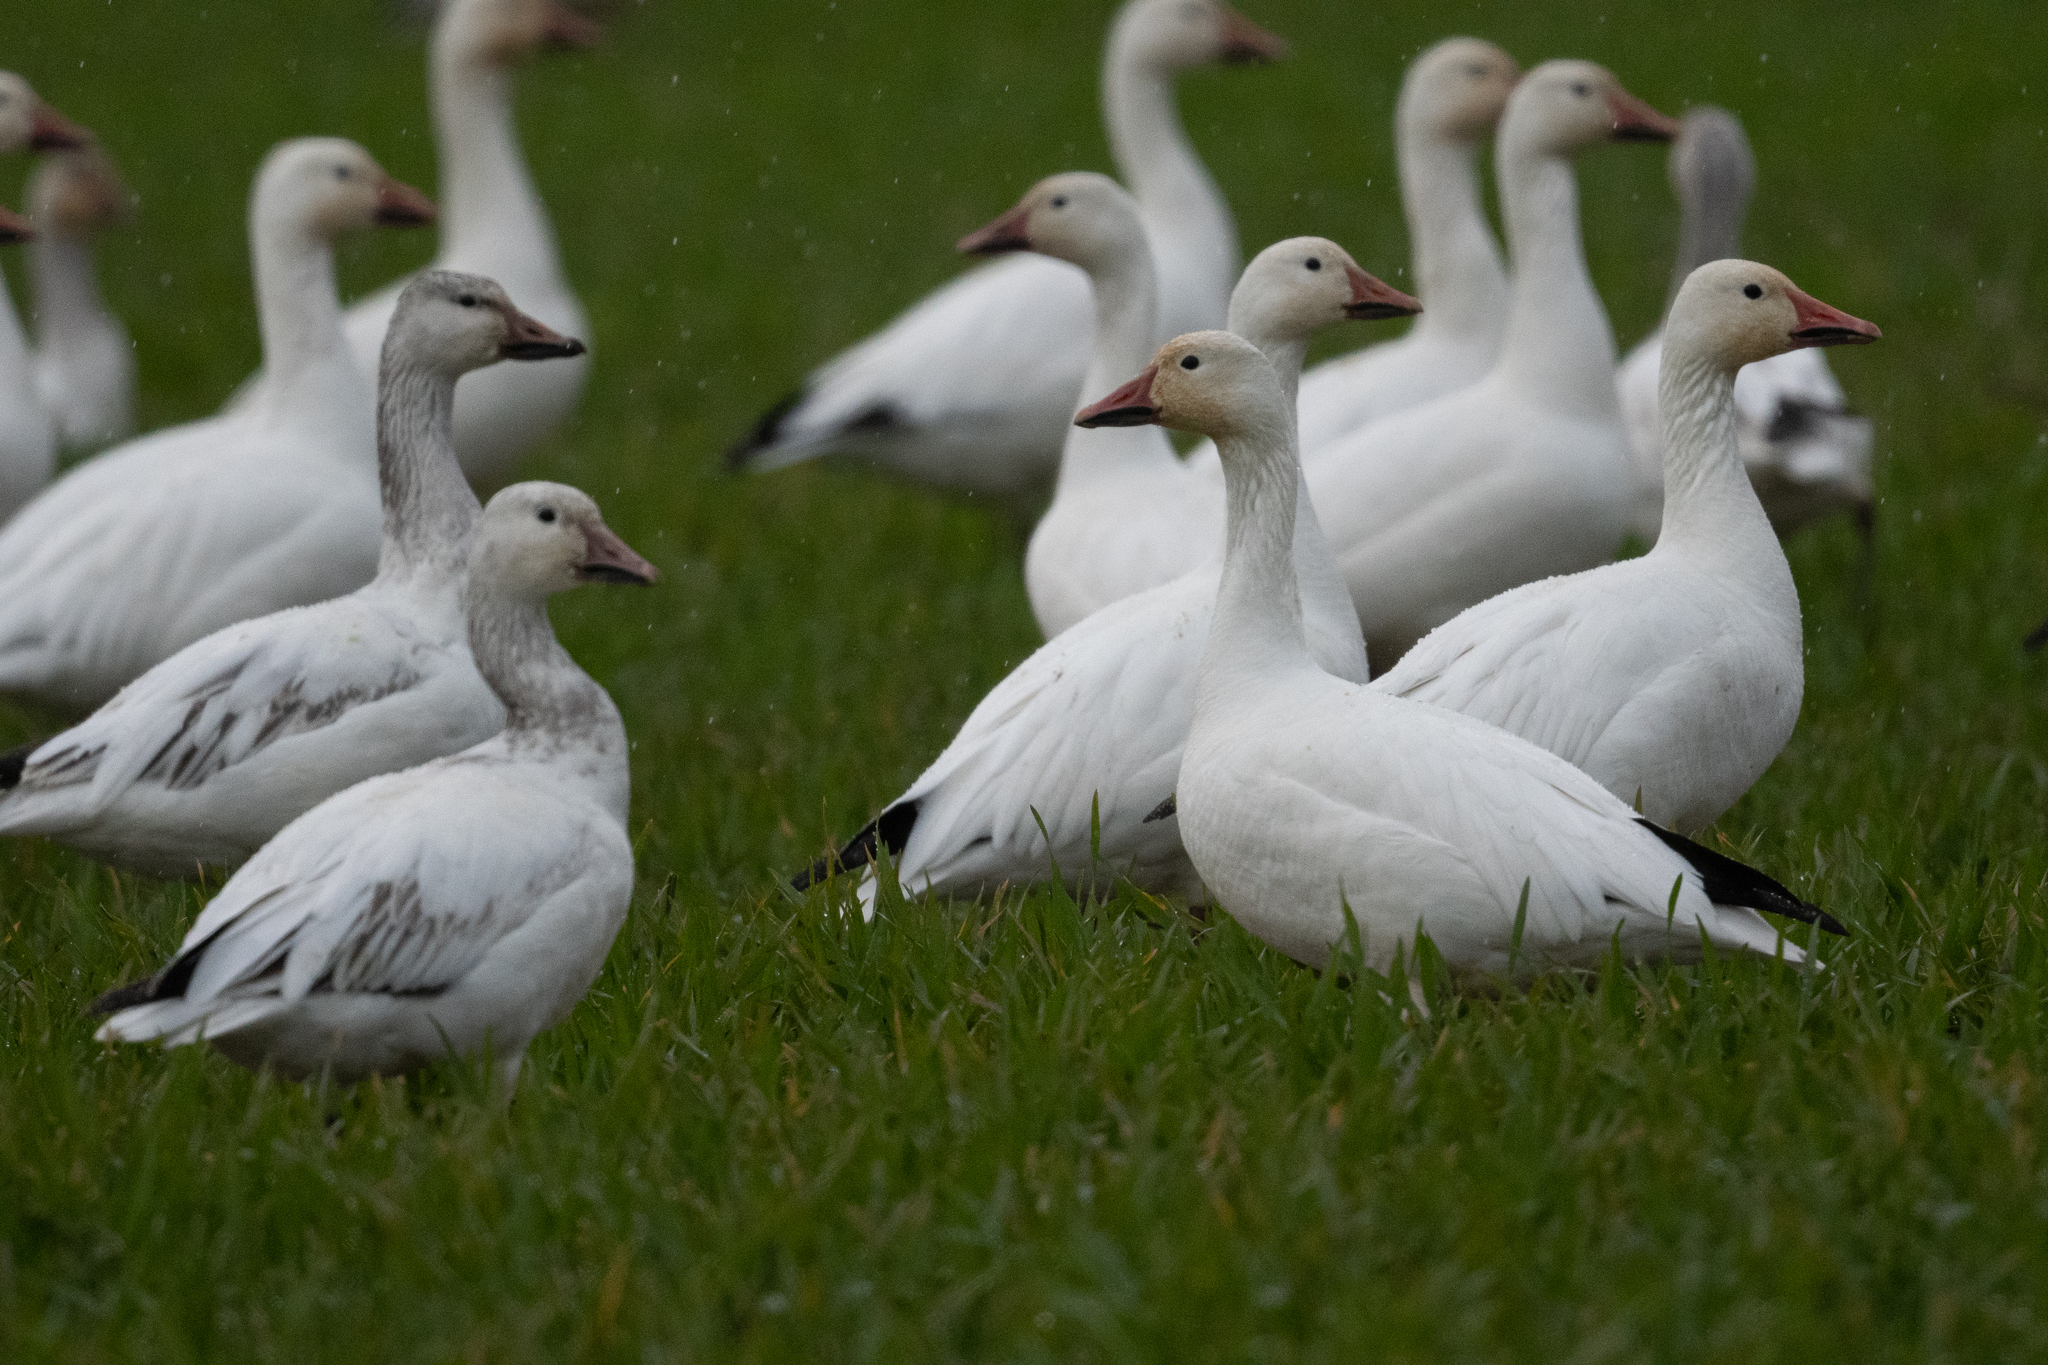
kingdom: Animalia
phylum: Chordata
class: Aves
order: Anseriformes
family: Anatidae
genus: Anser
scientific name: Anser caerulescens
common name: Snow goose
